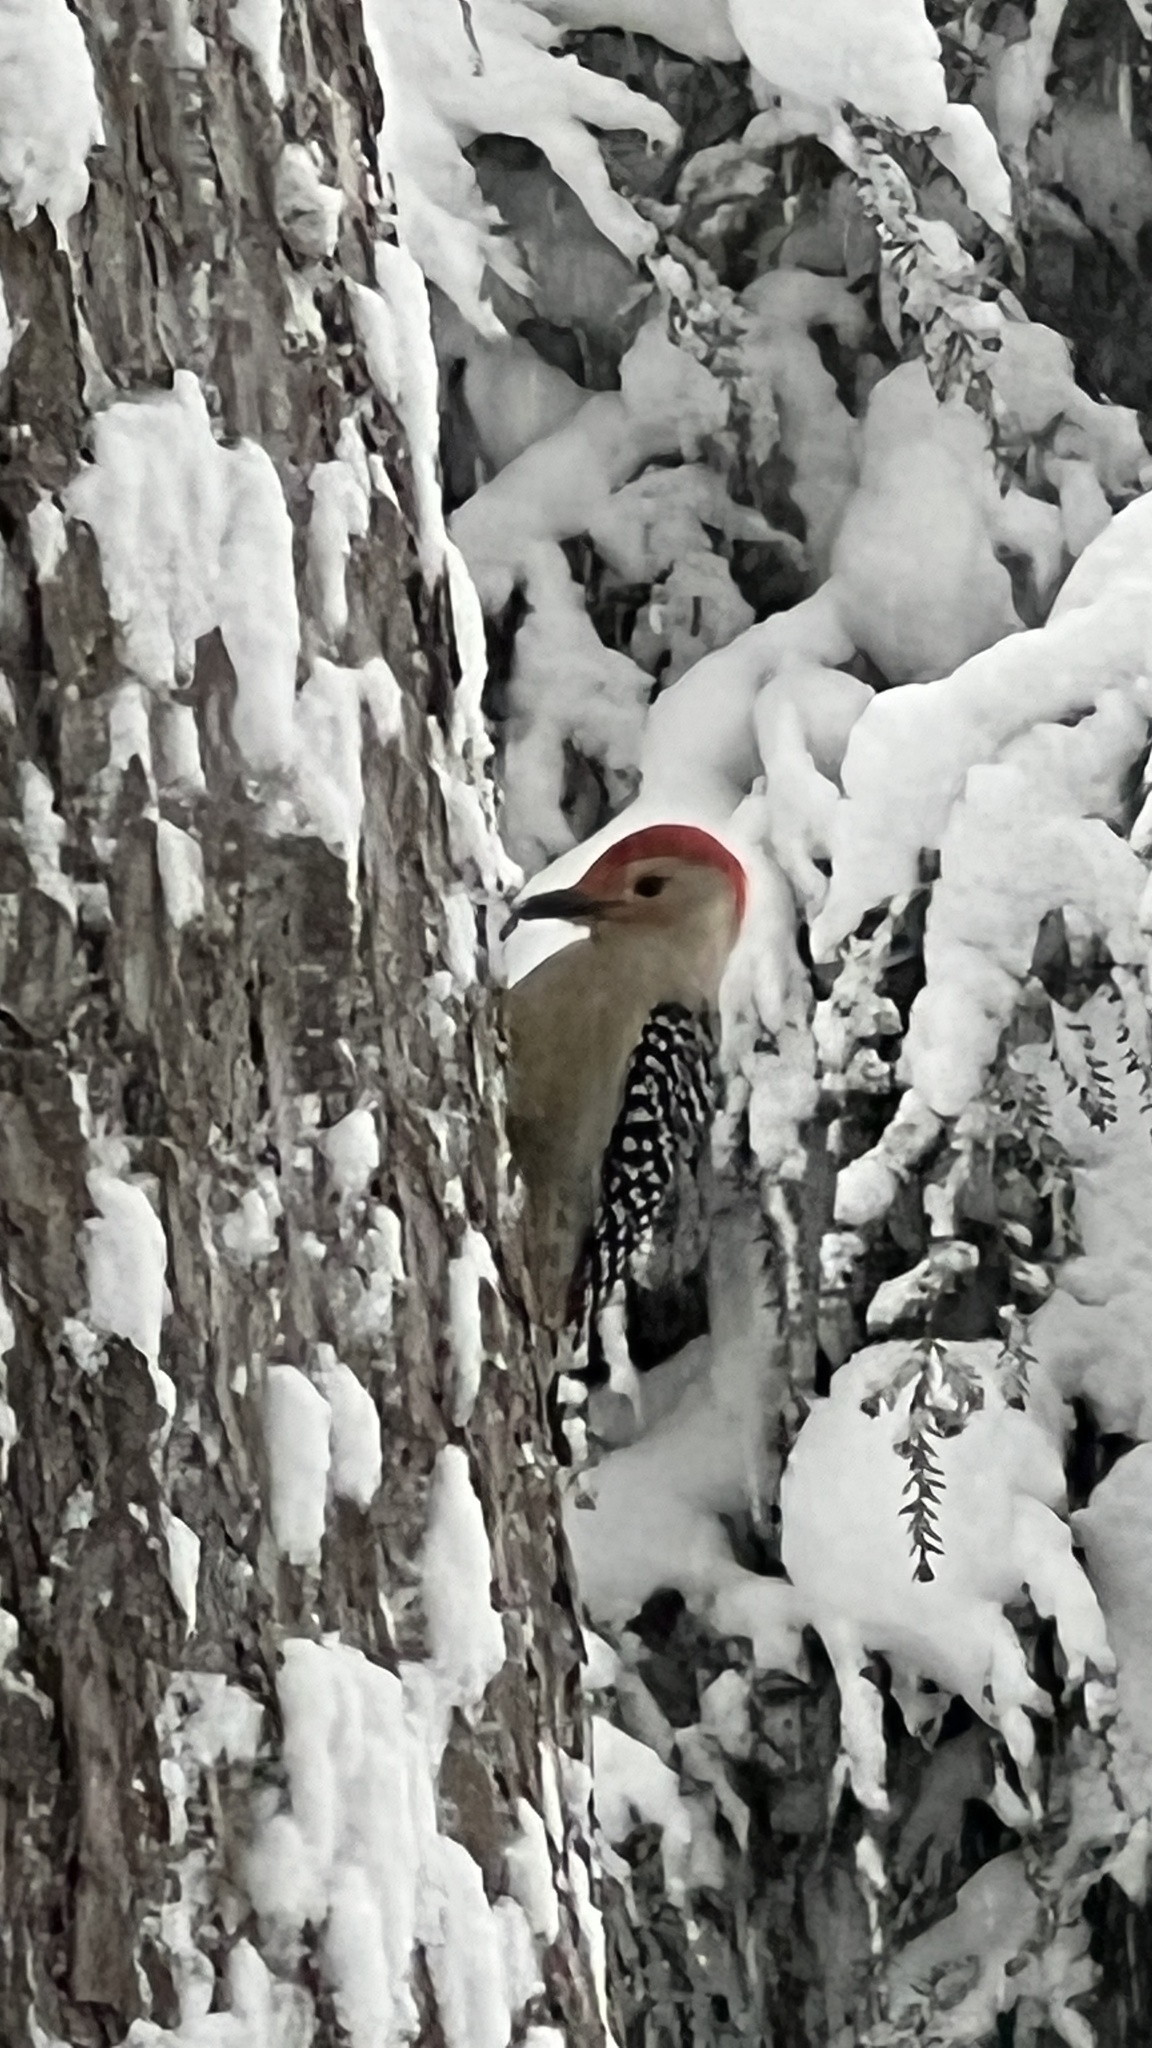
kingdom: Animalia
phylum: Chordata
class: Aves
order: Piciformes
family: Picidae
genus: Melanerpes
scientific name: Melanerpes carolinus
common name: Red-bellied woodpecker
